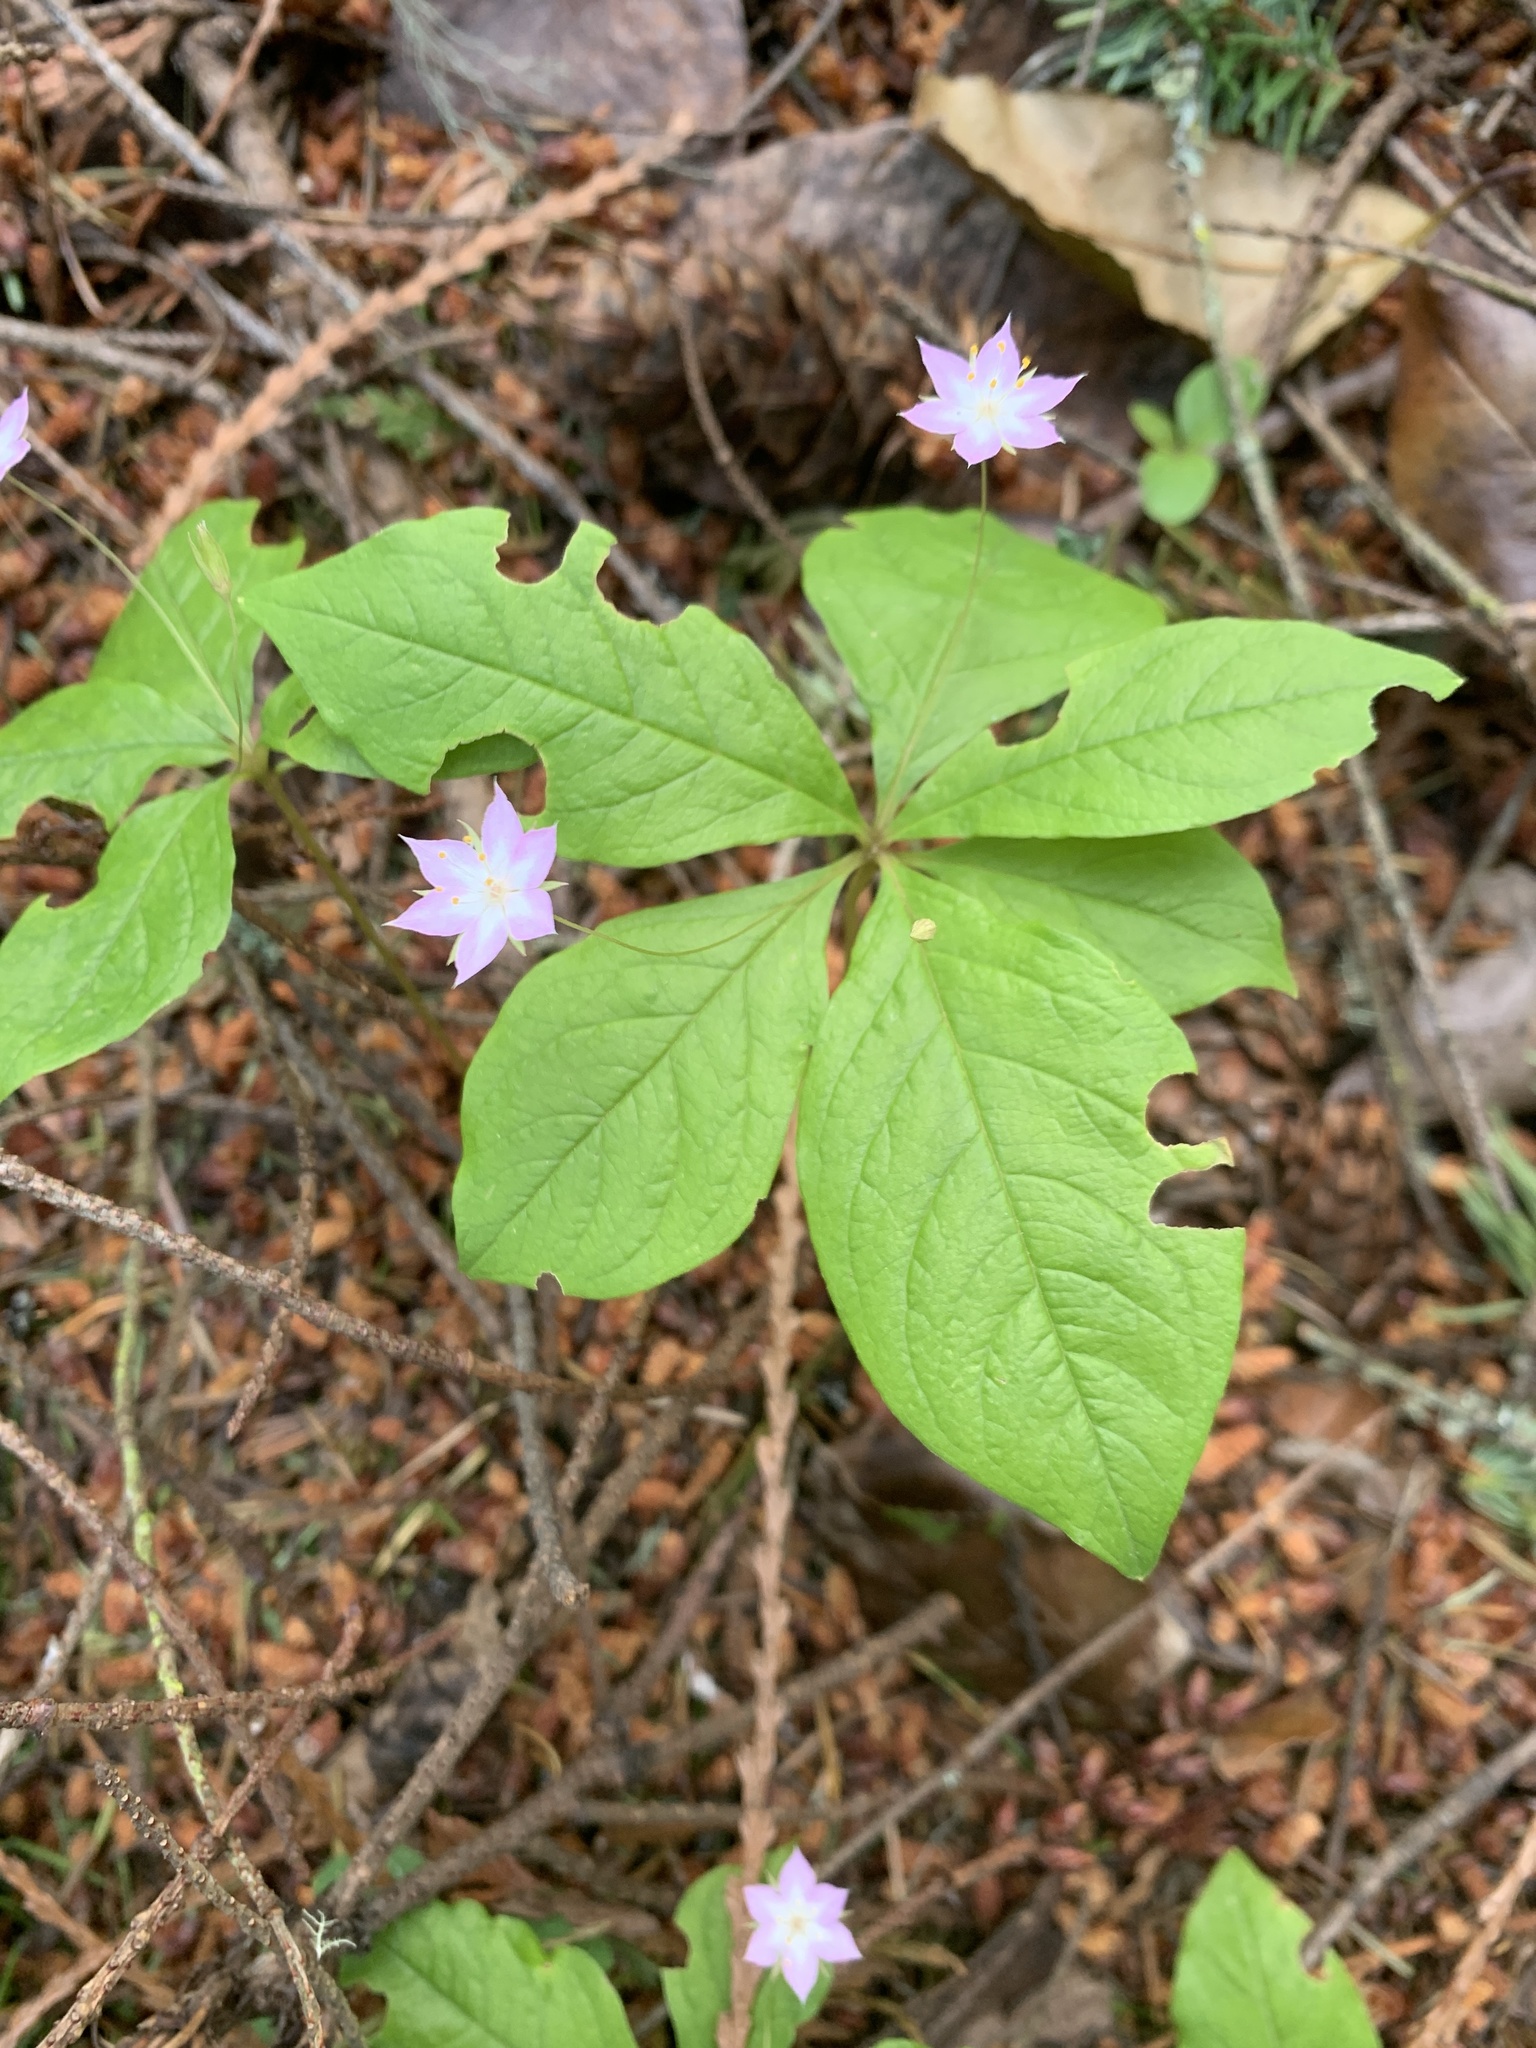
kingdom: Plantae
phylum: Tracheophyta
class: Magnoliopsida
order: Ericales
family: Primulaceae
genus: Lysimachia
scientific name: Lysimachia latifolia
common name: Pacific starflower
